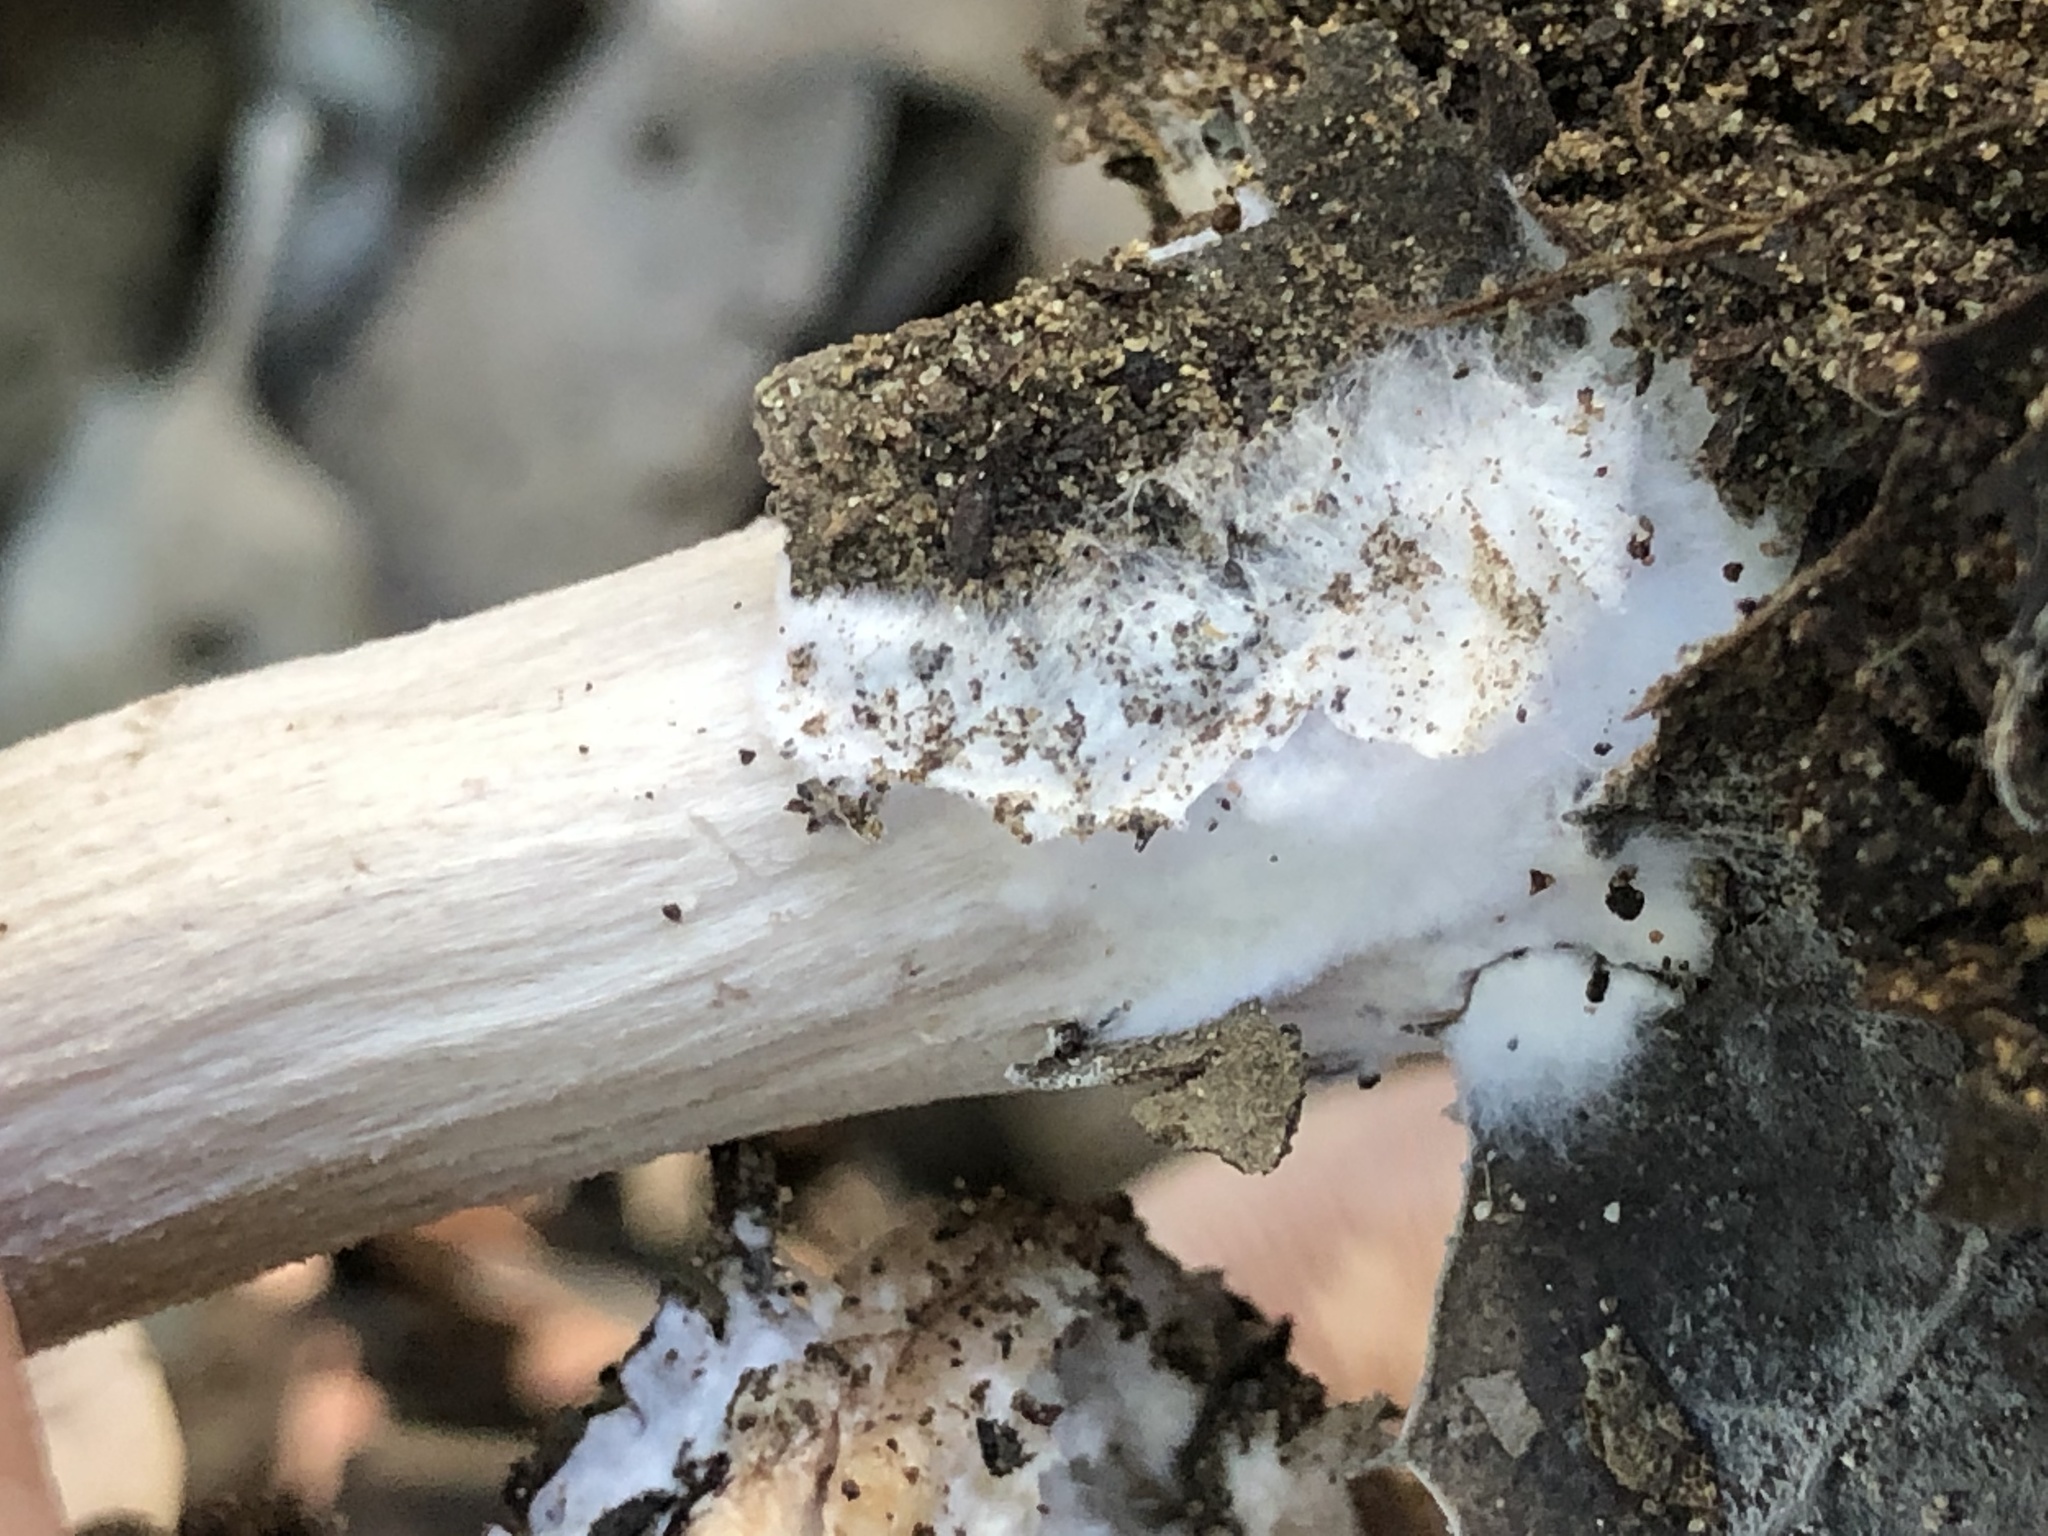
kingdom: Fungi
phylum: Basidiomycota
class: Agaricomycetes
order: Agaricales
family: Tricholomataceae
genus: Collybia
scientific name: Collybia
